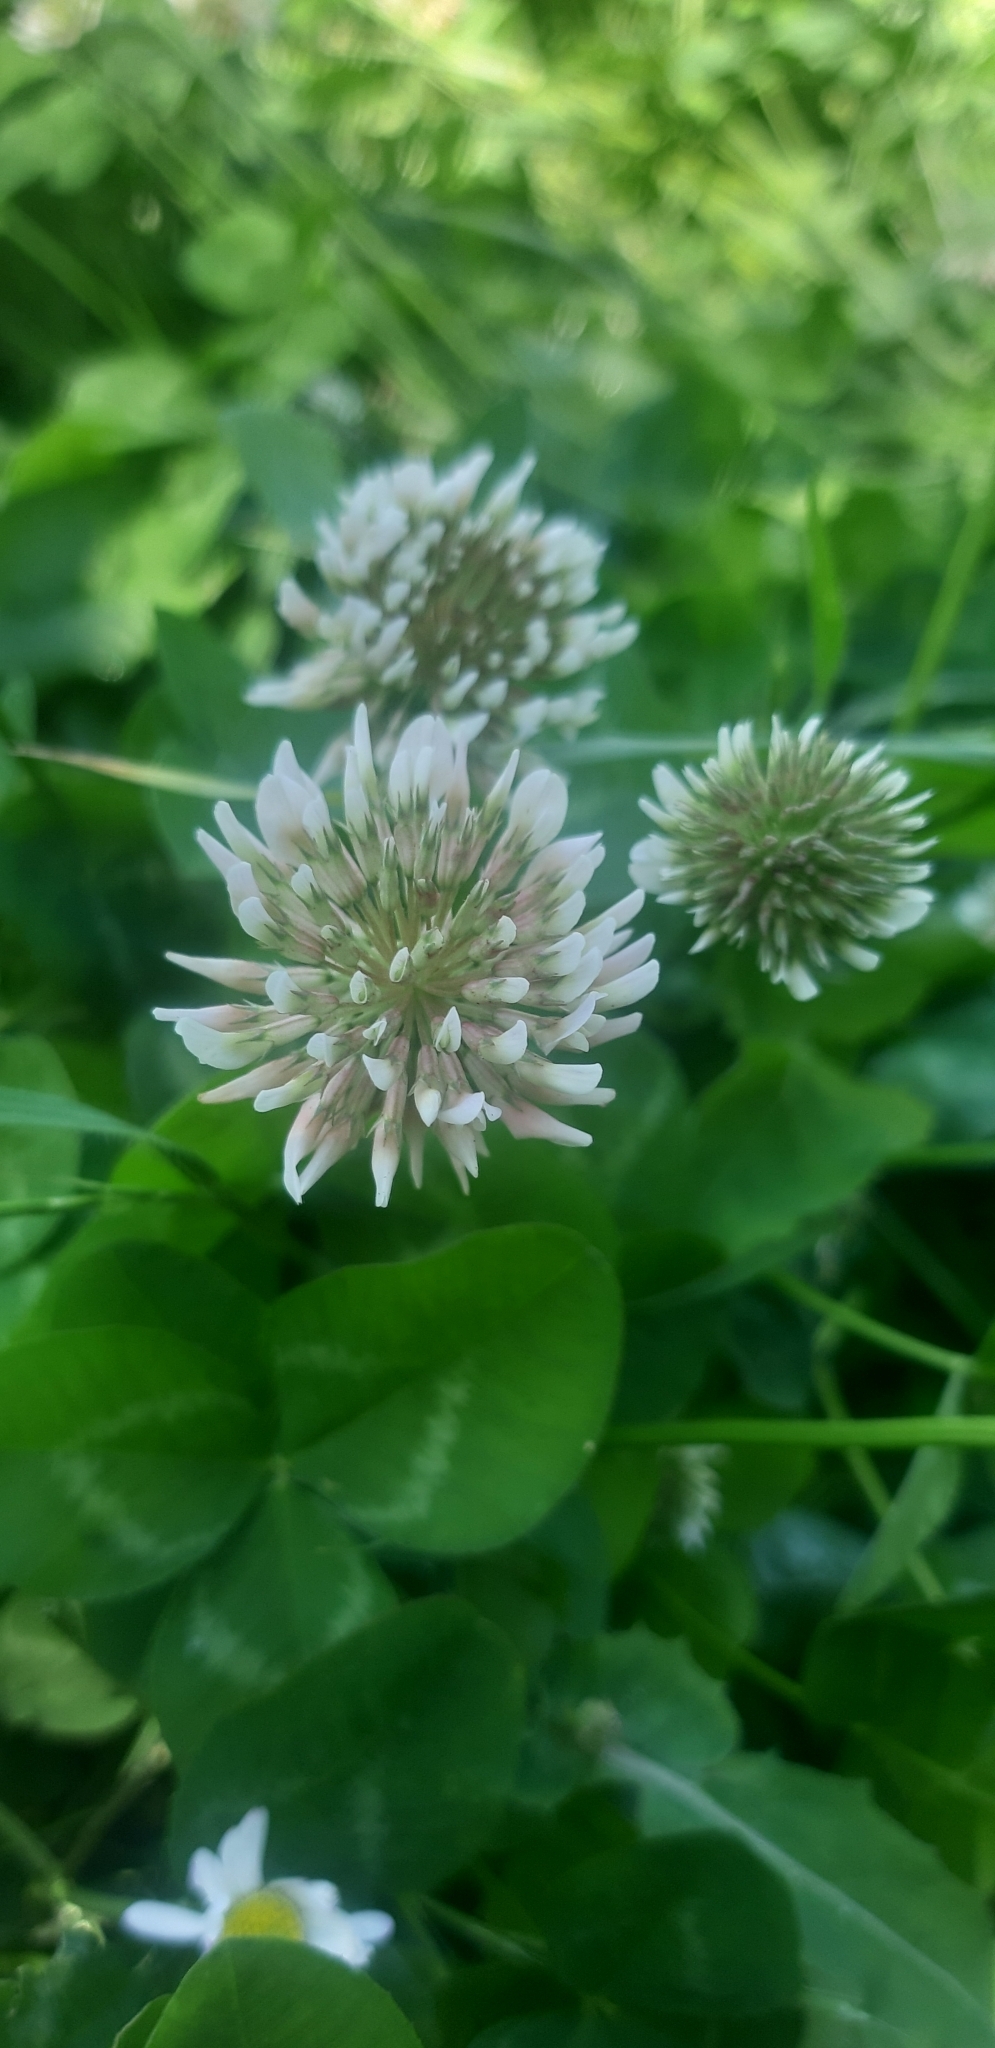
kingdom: Plantae
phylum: Tracheophyta
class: Magnoliopsida
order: Fabales
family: Fabaceae
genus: Trifolium
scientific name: Trifolium repens
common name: White clover
